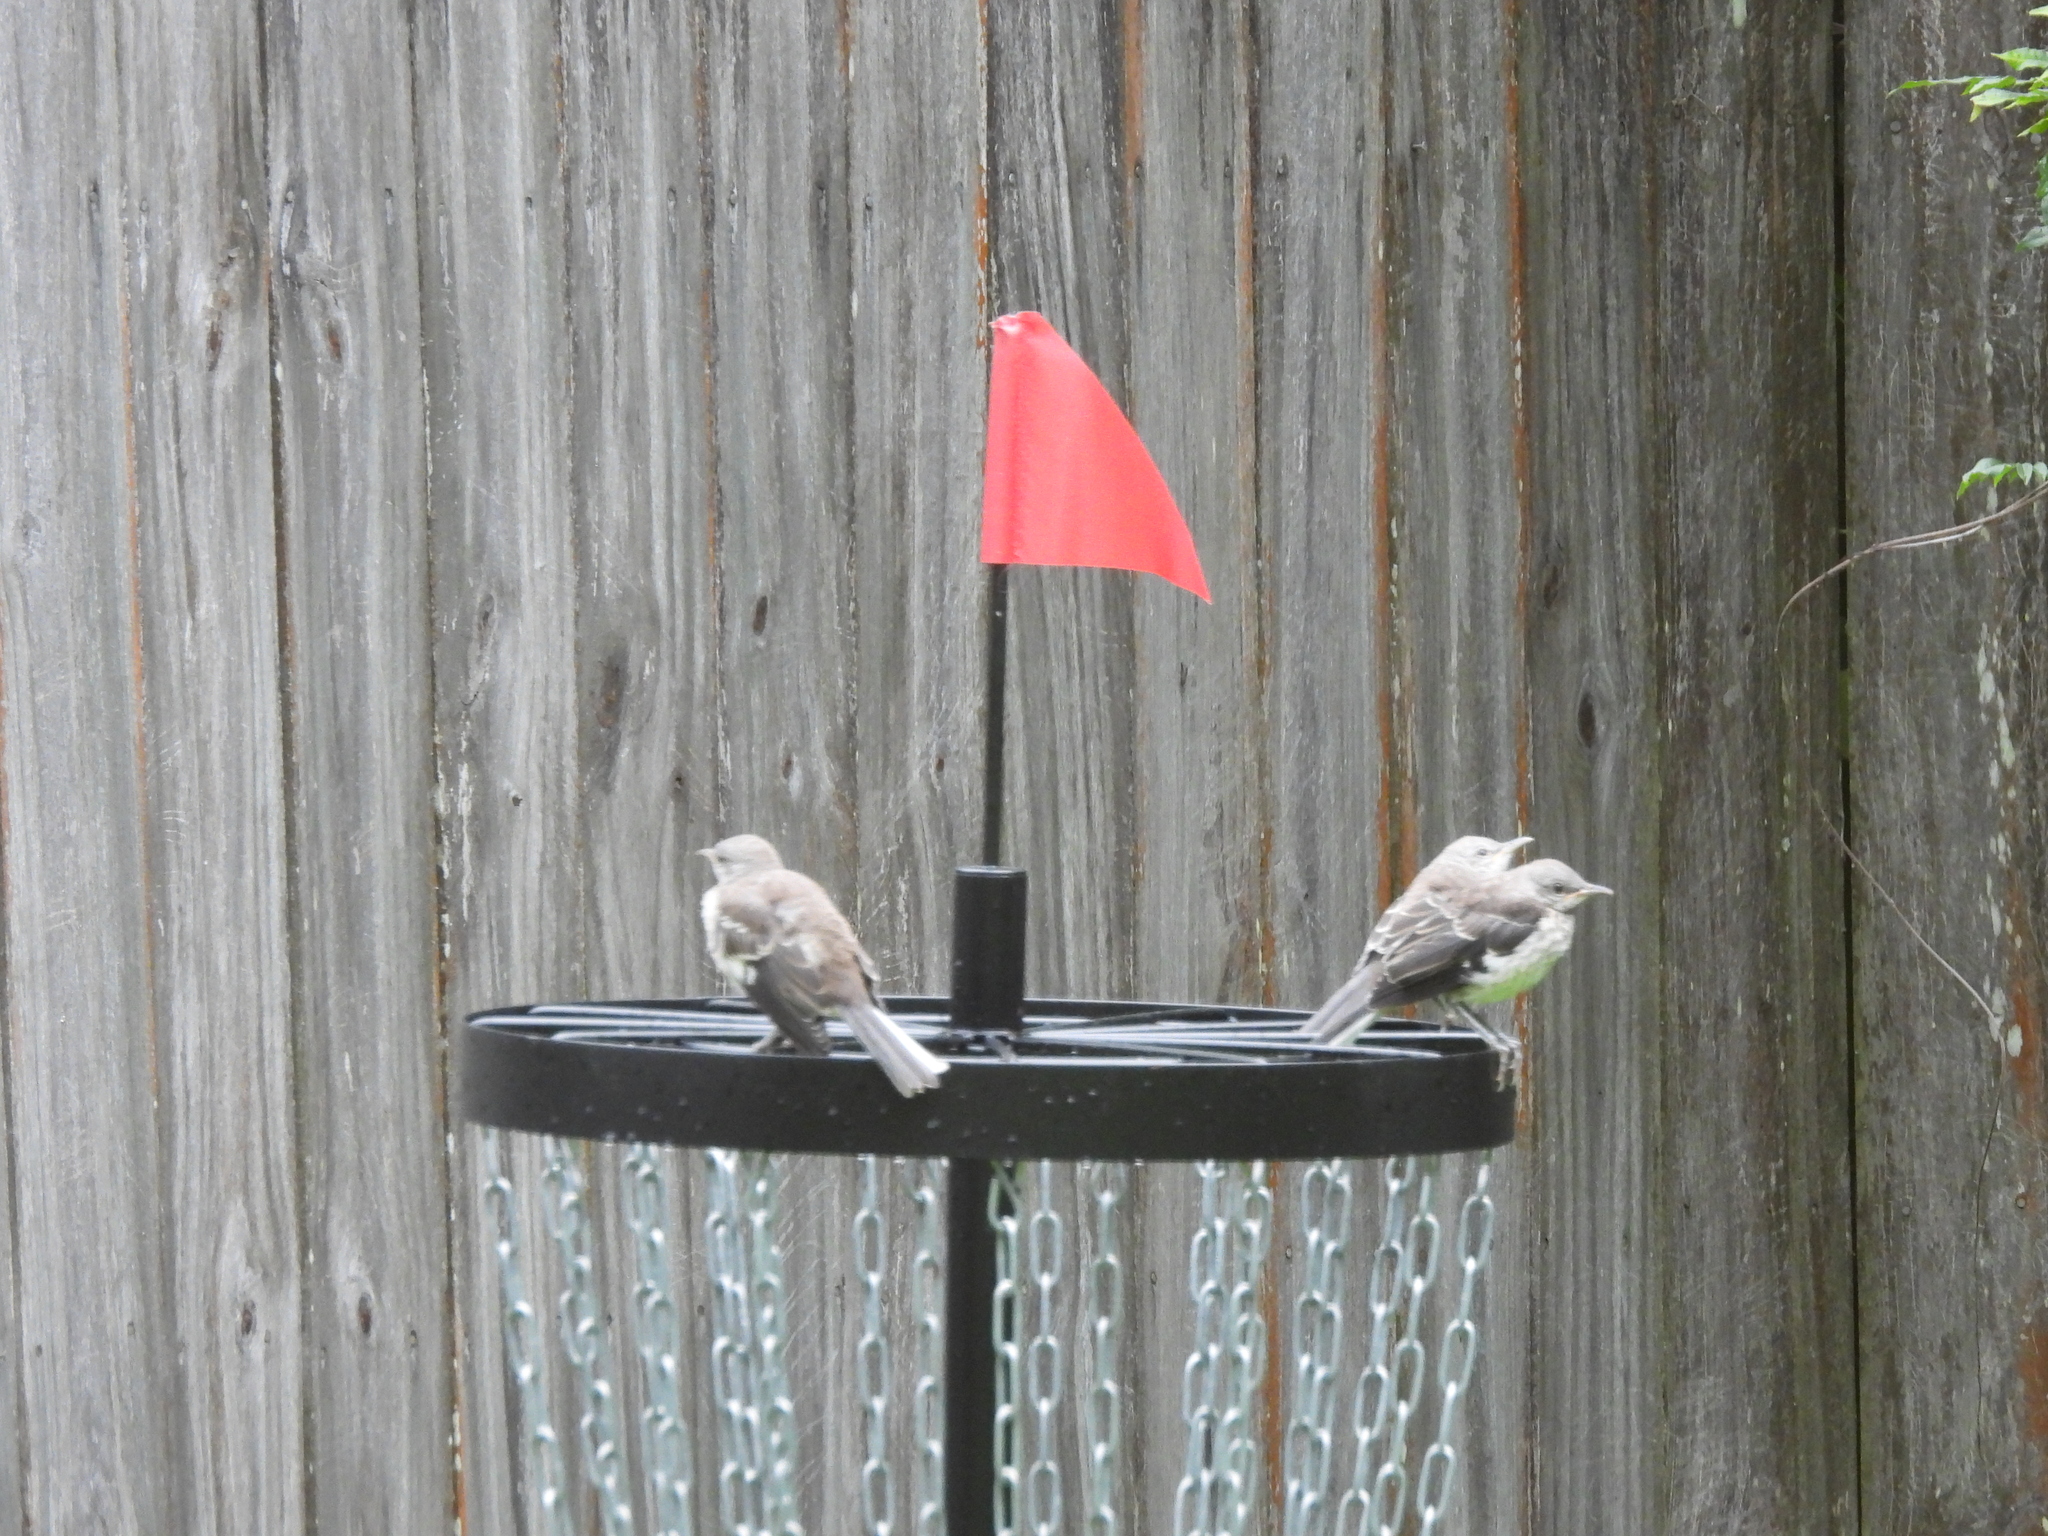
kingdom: Animalia
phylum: Chordata
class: Aves
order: Passeriformes
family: Mimidae
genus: Mimus
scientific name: Mimus polyglottos
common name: Northern mockingbird
